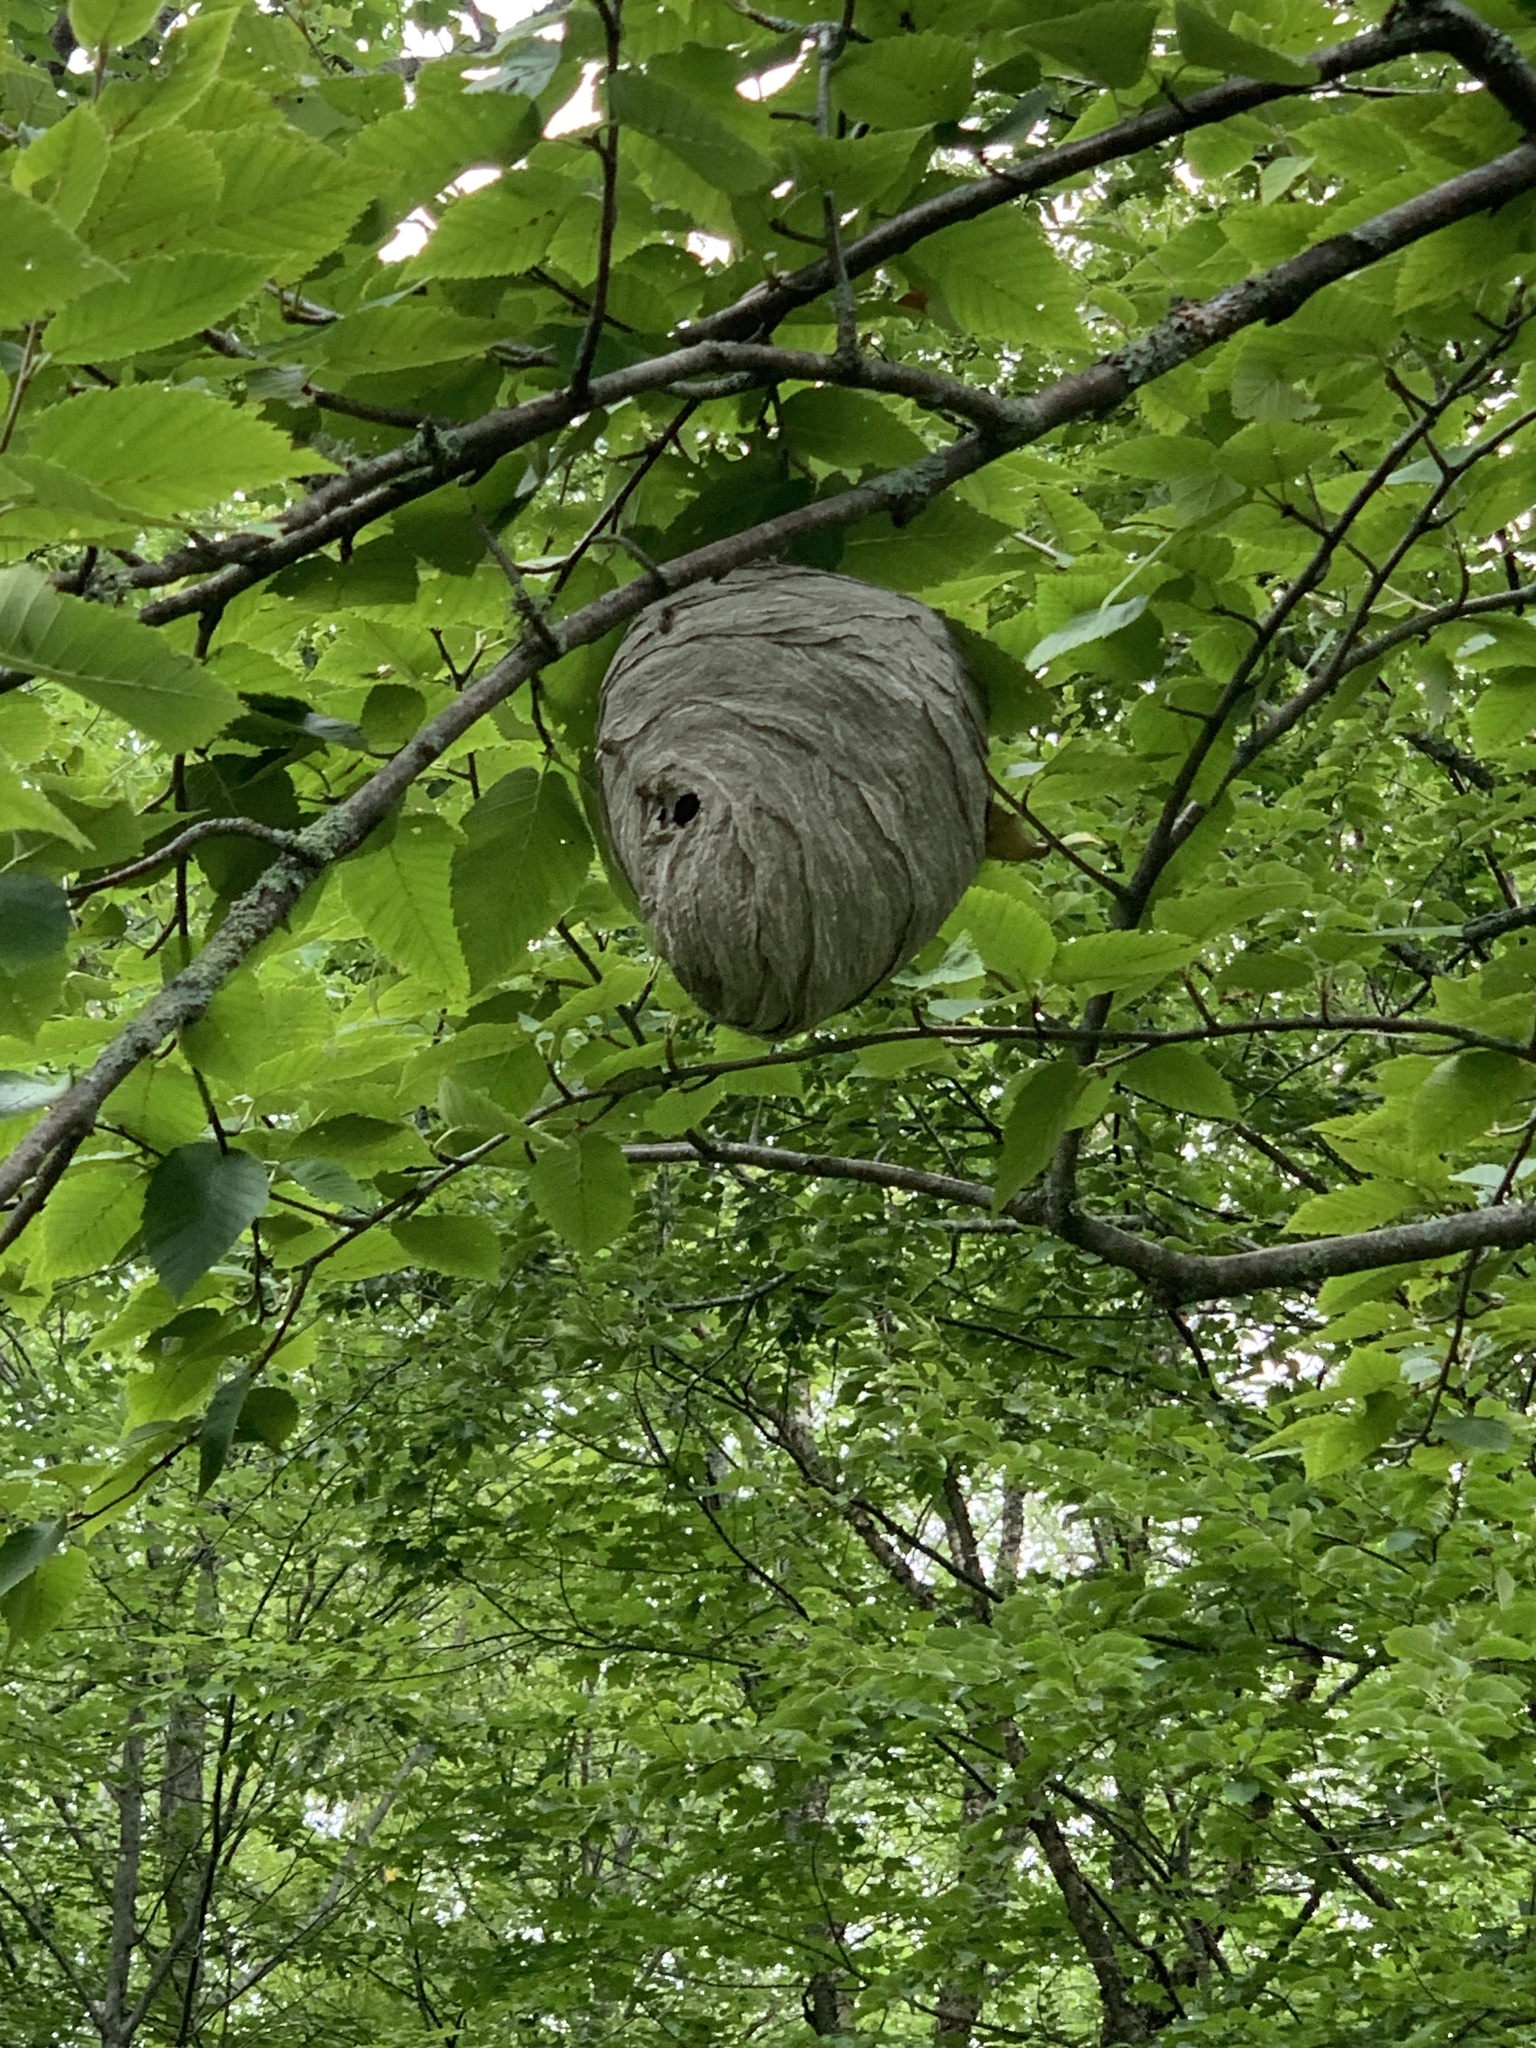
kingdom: Animalia
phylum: Arthropoda
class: Insecta
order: Hymenoptera
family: Vespidae
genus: Dolichovespula
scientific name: Dolichovespula arenaria
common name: Aerial yellowjacket
